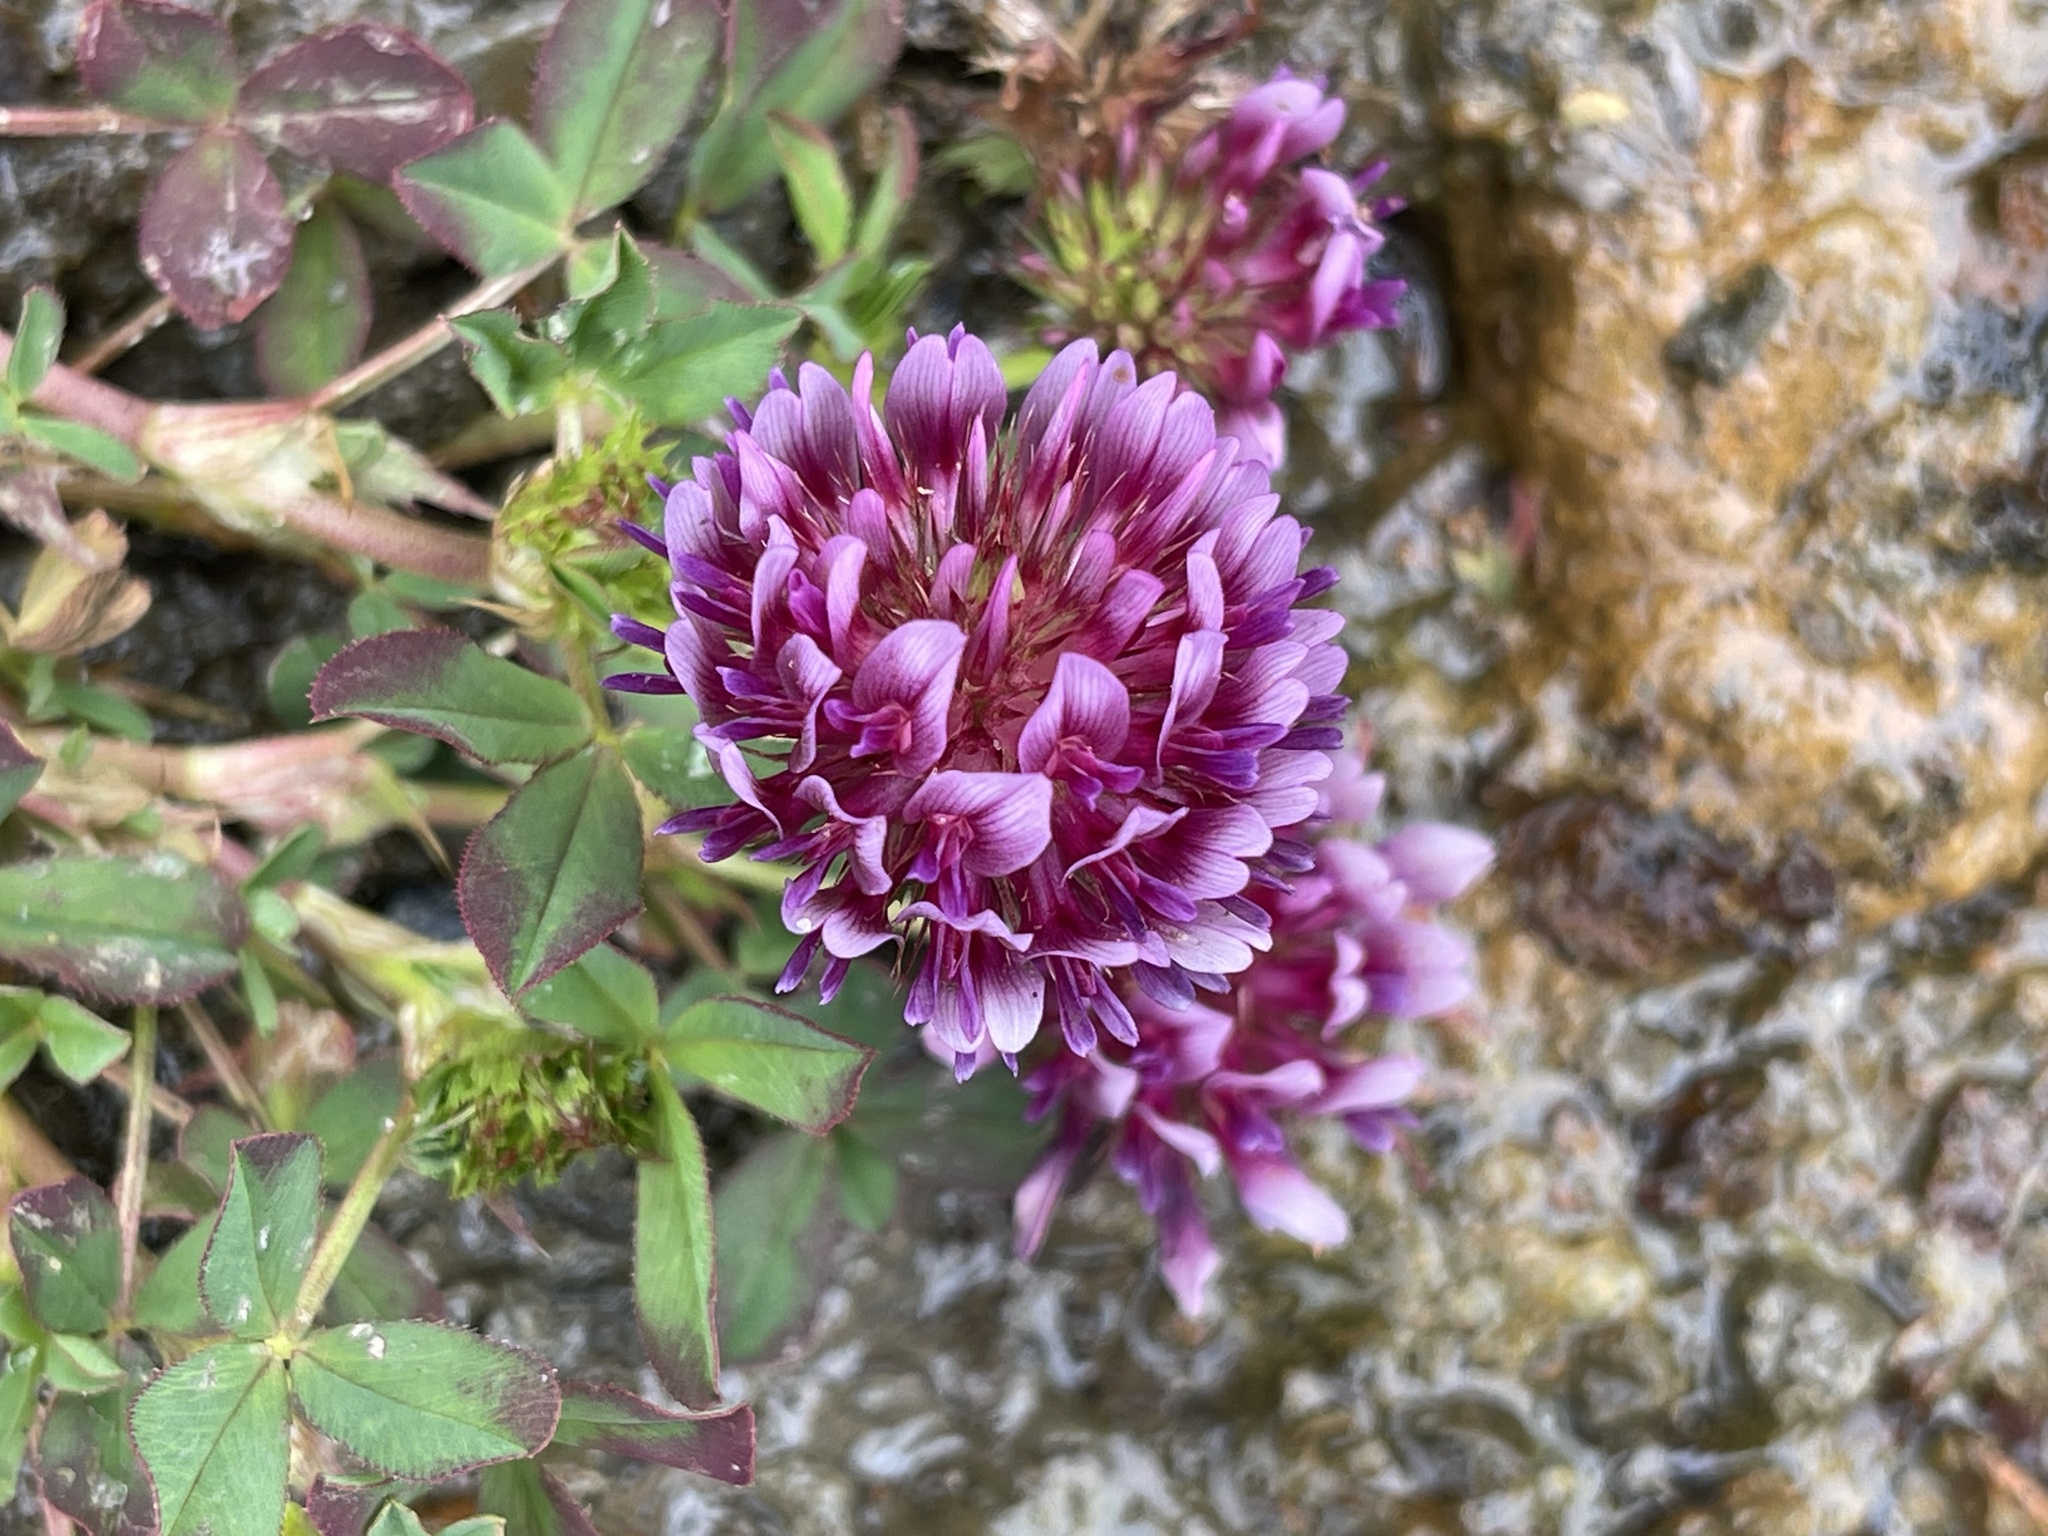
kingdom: Plantae
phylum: Tracheophyta
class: Magnoliopsida
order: Fabales
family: Fabaceae
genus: Trifolium
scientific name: Trifolium wormskioldii
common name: Springbank clover
